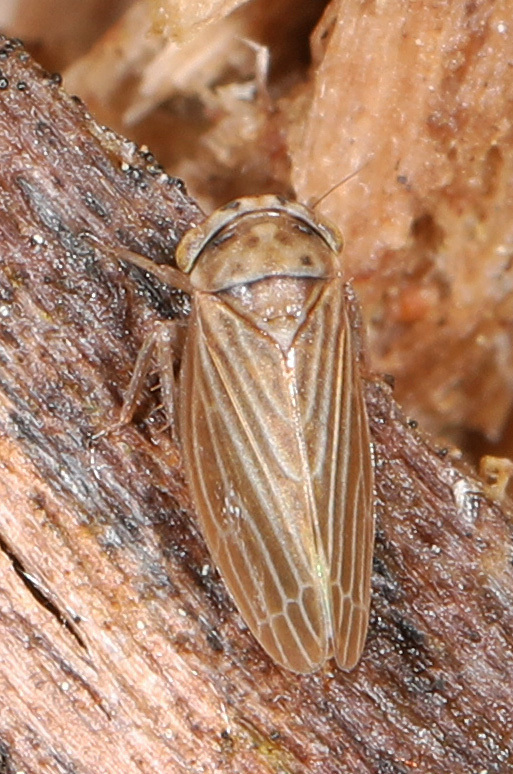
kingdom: Animalia
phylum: Arthropoda
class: Insecta
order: Hemiptera
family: Cicadellidae
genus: Agalliota
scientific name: Agalliota quadripunctata
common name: The four-spotted clover leafhopper
